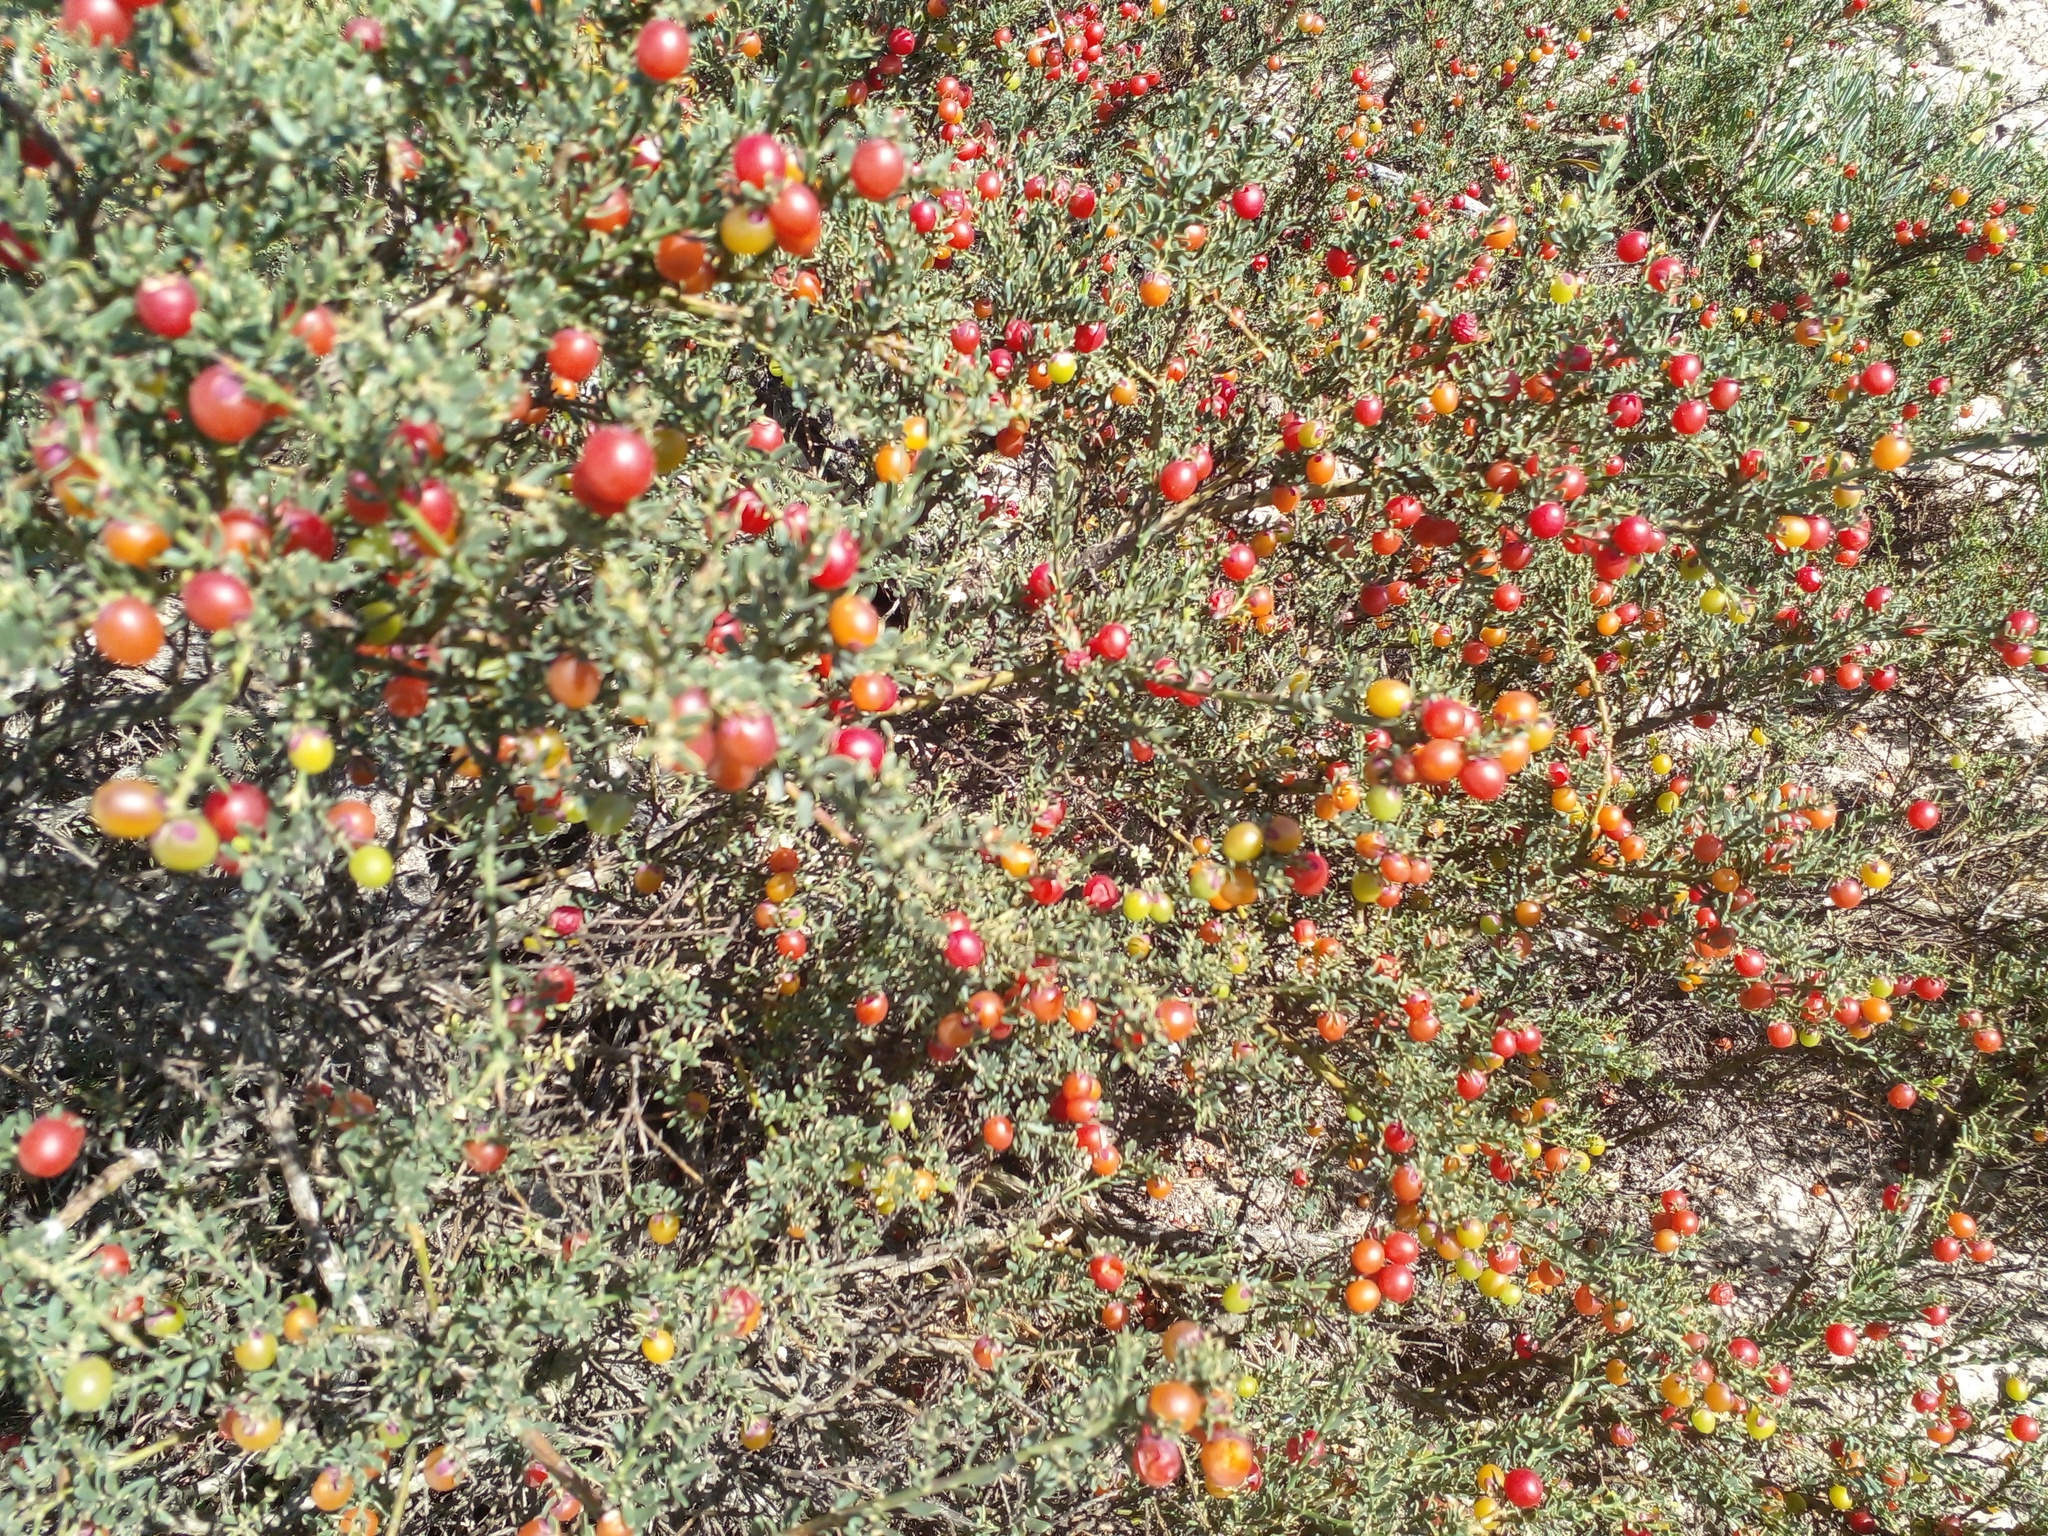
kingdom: Plantae
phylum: Tracheophyta
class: Magnoliopsida
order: Fabales
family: Polygalaceae
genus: Muraltia
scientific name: Muraltia spinosa
